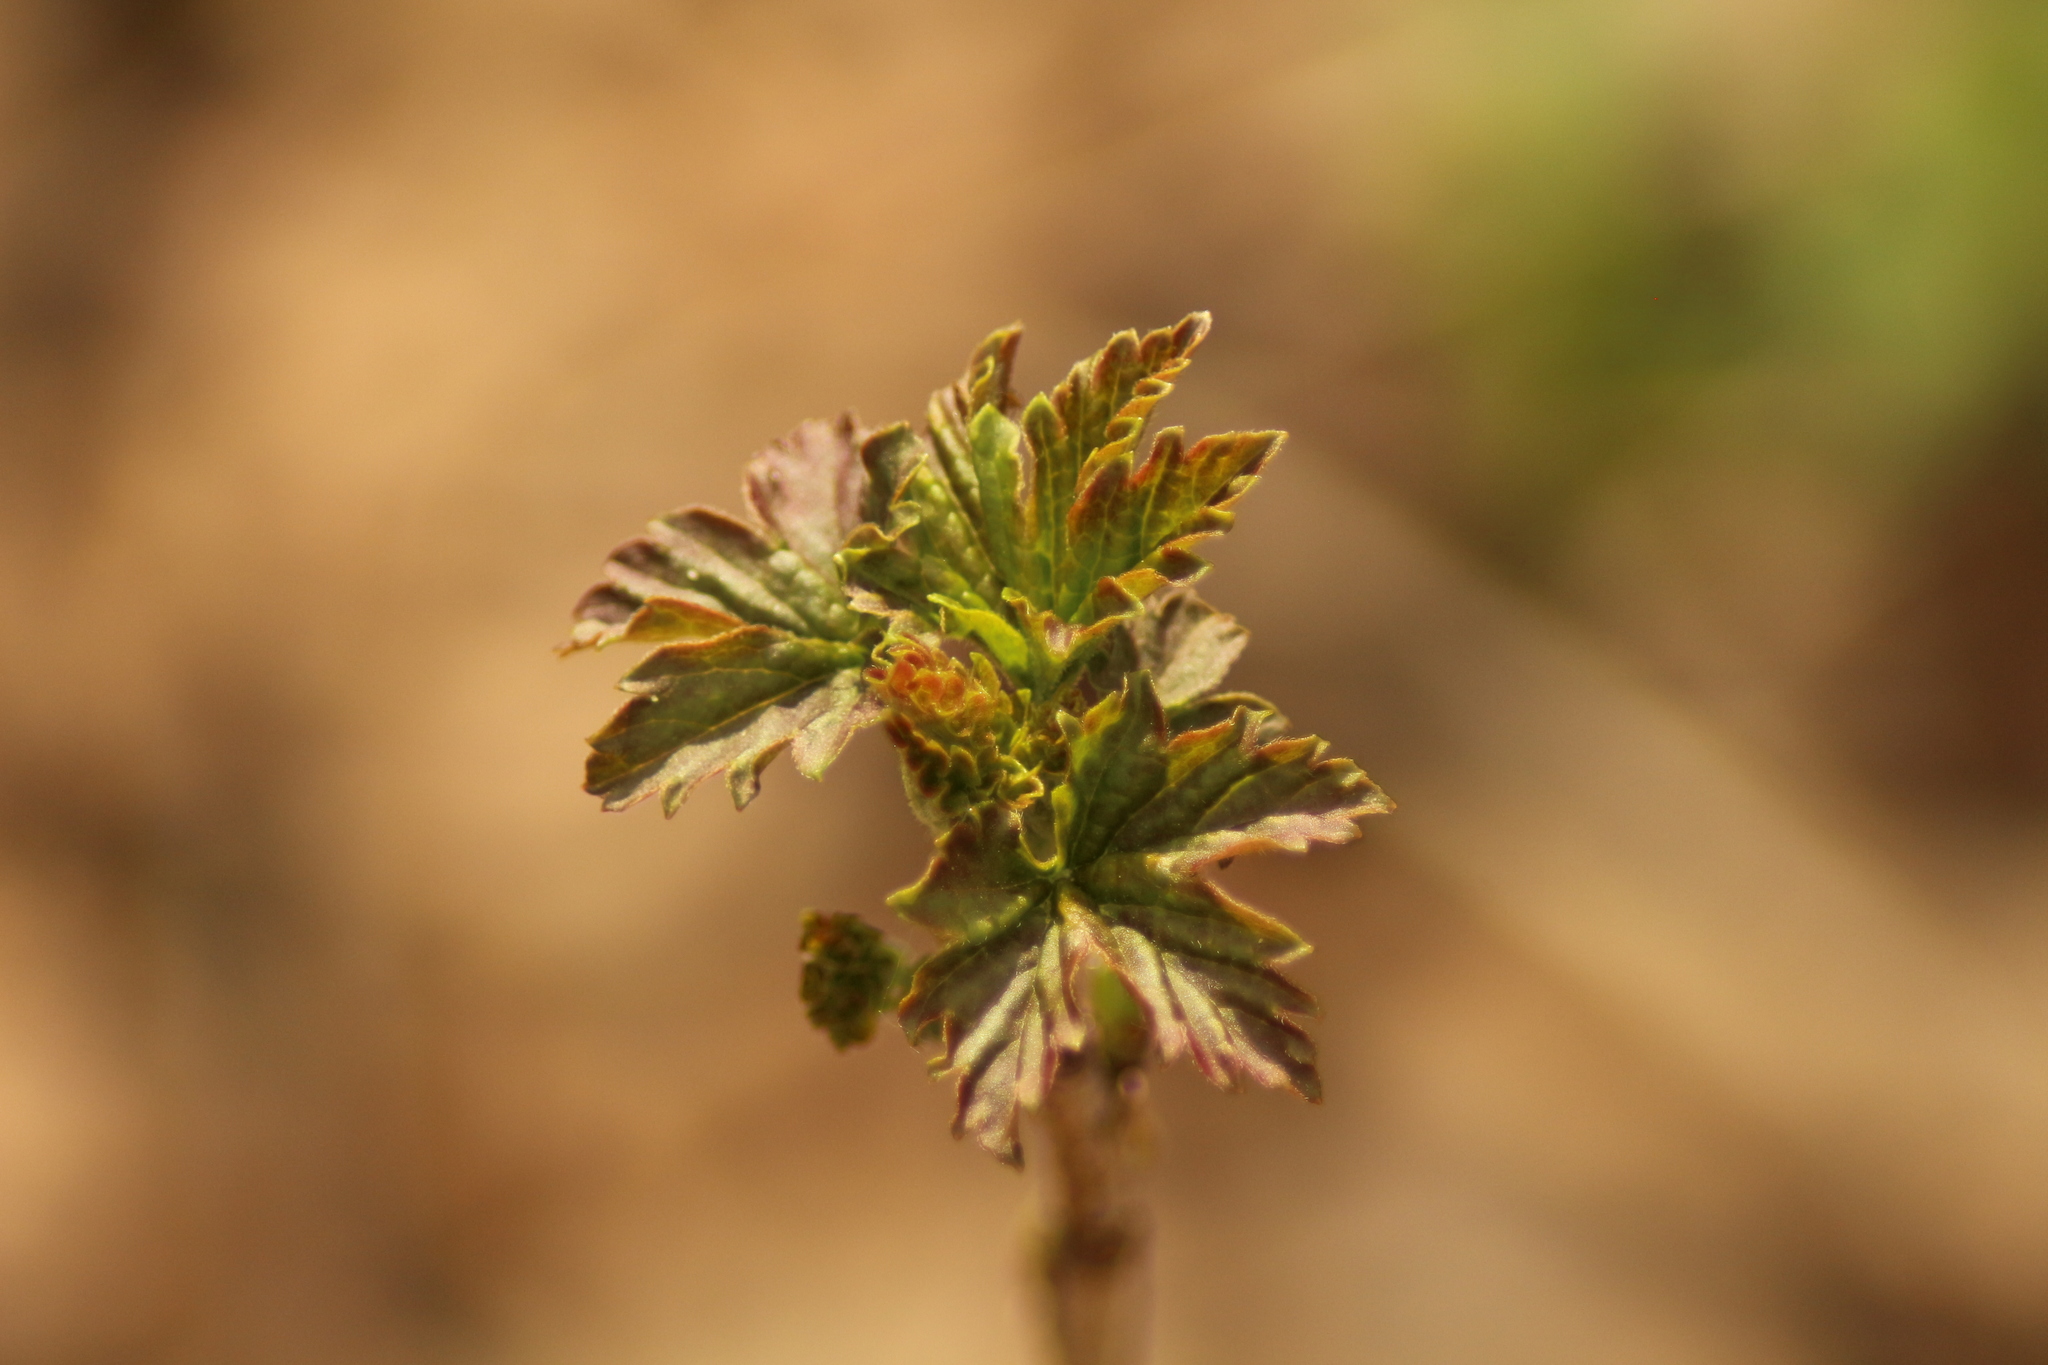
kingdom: Plantae
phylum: Tracheophyta
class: Magnoliopsida
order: Saxifragales
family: Grossulariaceae
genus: Ribes
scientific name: Ribes nigrum
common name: Black currant
